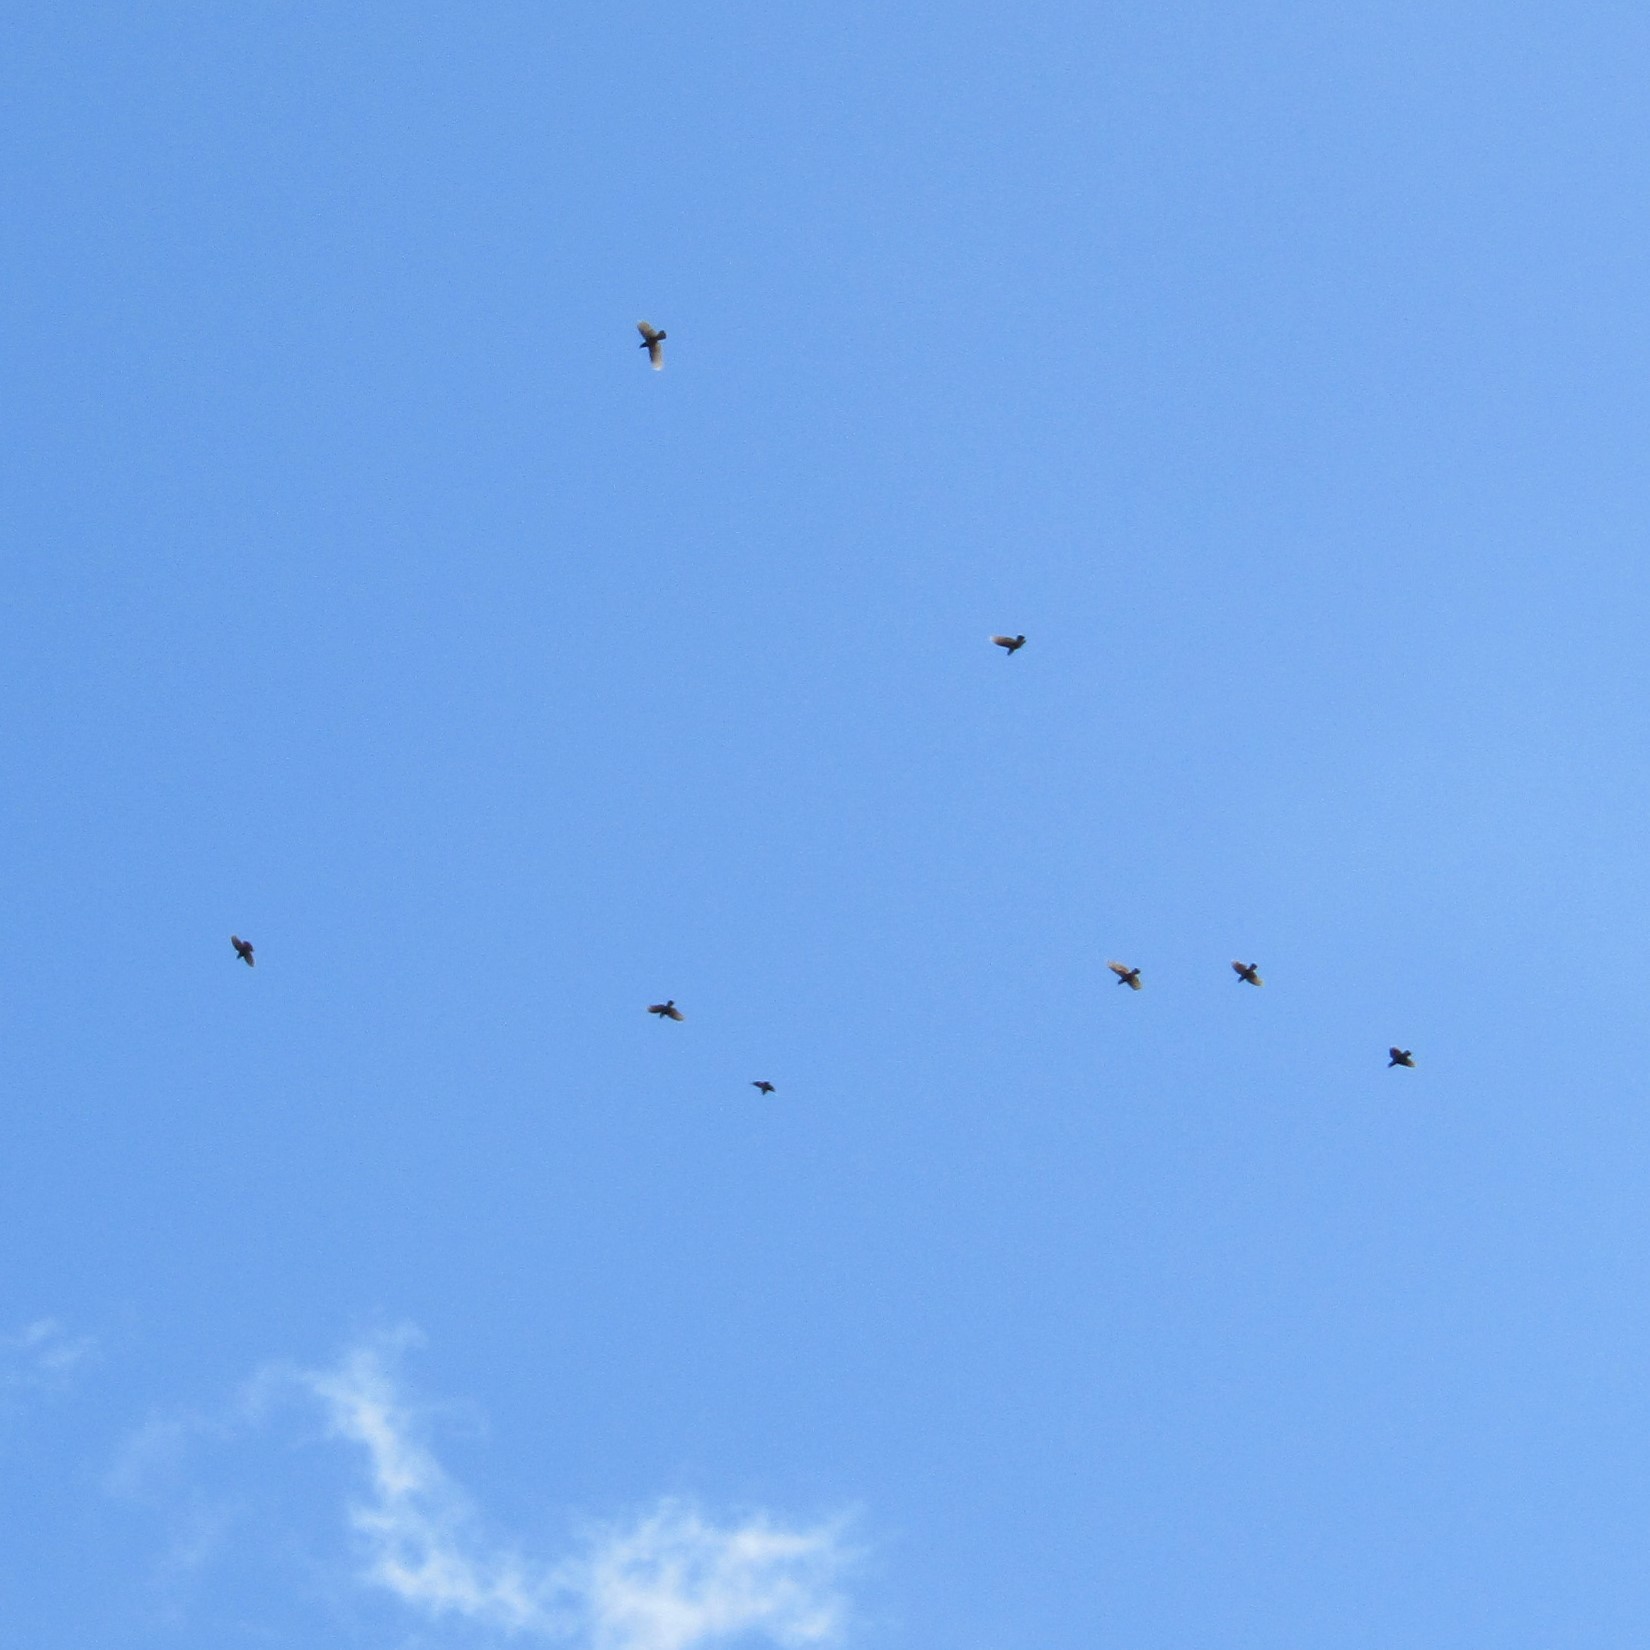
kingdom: Animalia
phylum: Chordata
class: Aves
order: Psittaciformes
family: Psittacidae
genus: Nestor
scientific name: Nestor meridionalis
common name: New zealand kaka
